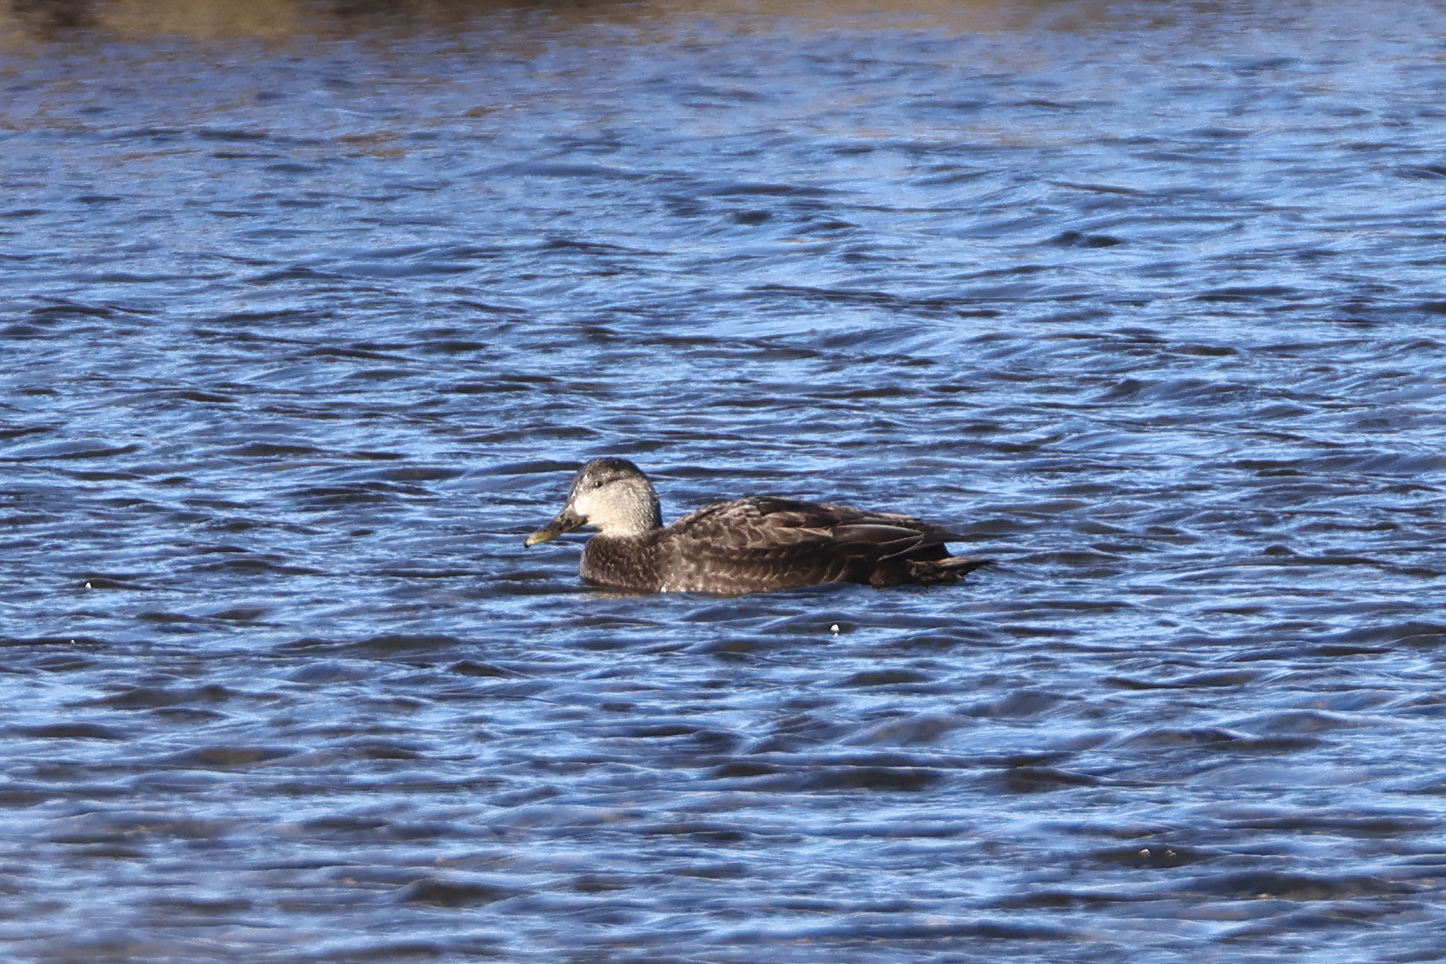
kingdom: Animalia
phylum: Chordata
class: Aves
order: Anseriformes
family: Anatidae
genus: Anas
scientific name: Anas rubripes
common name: American black duck
